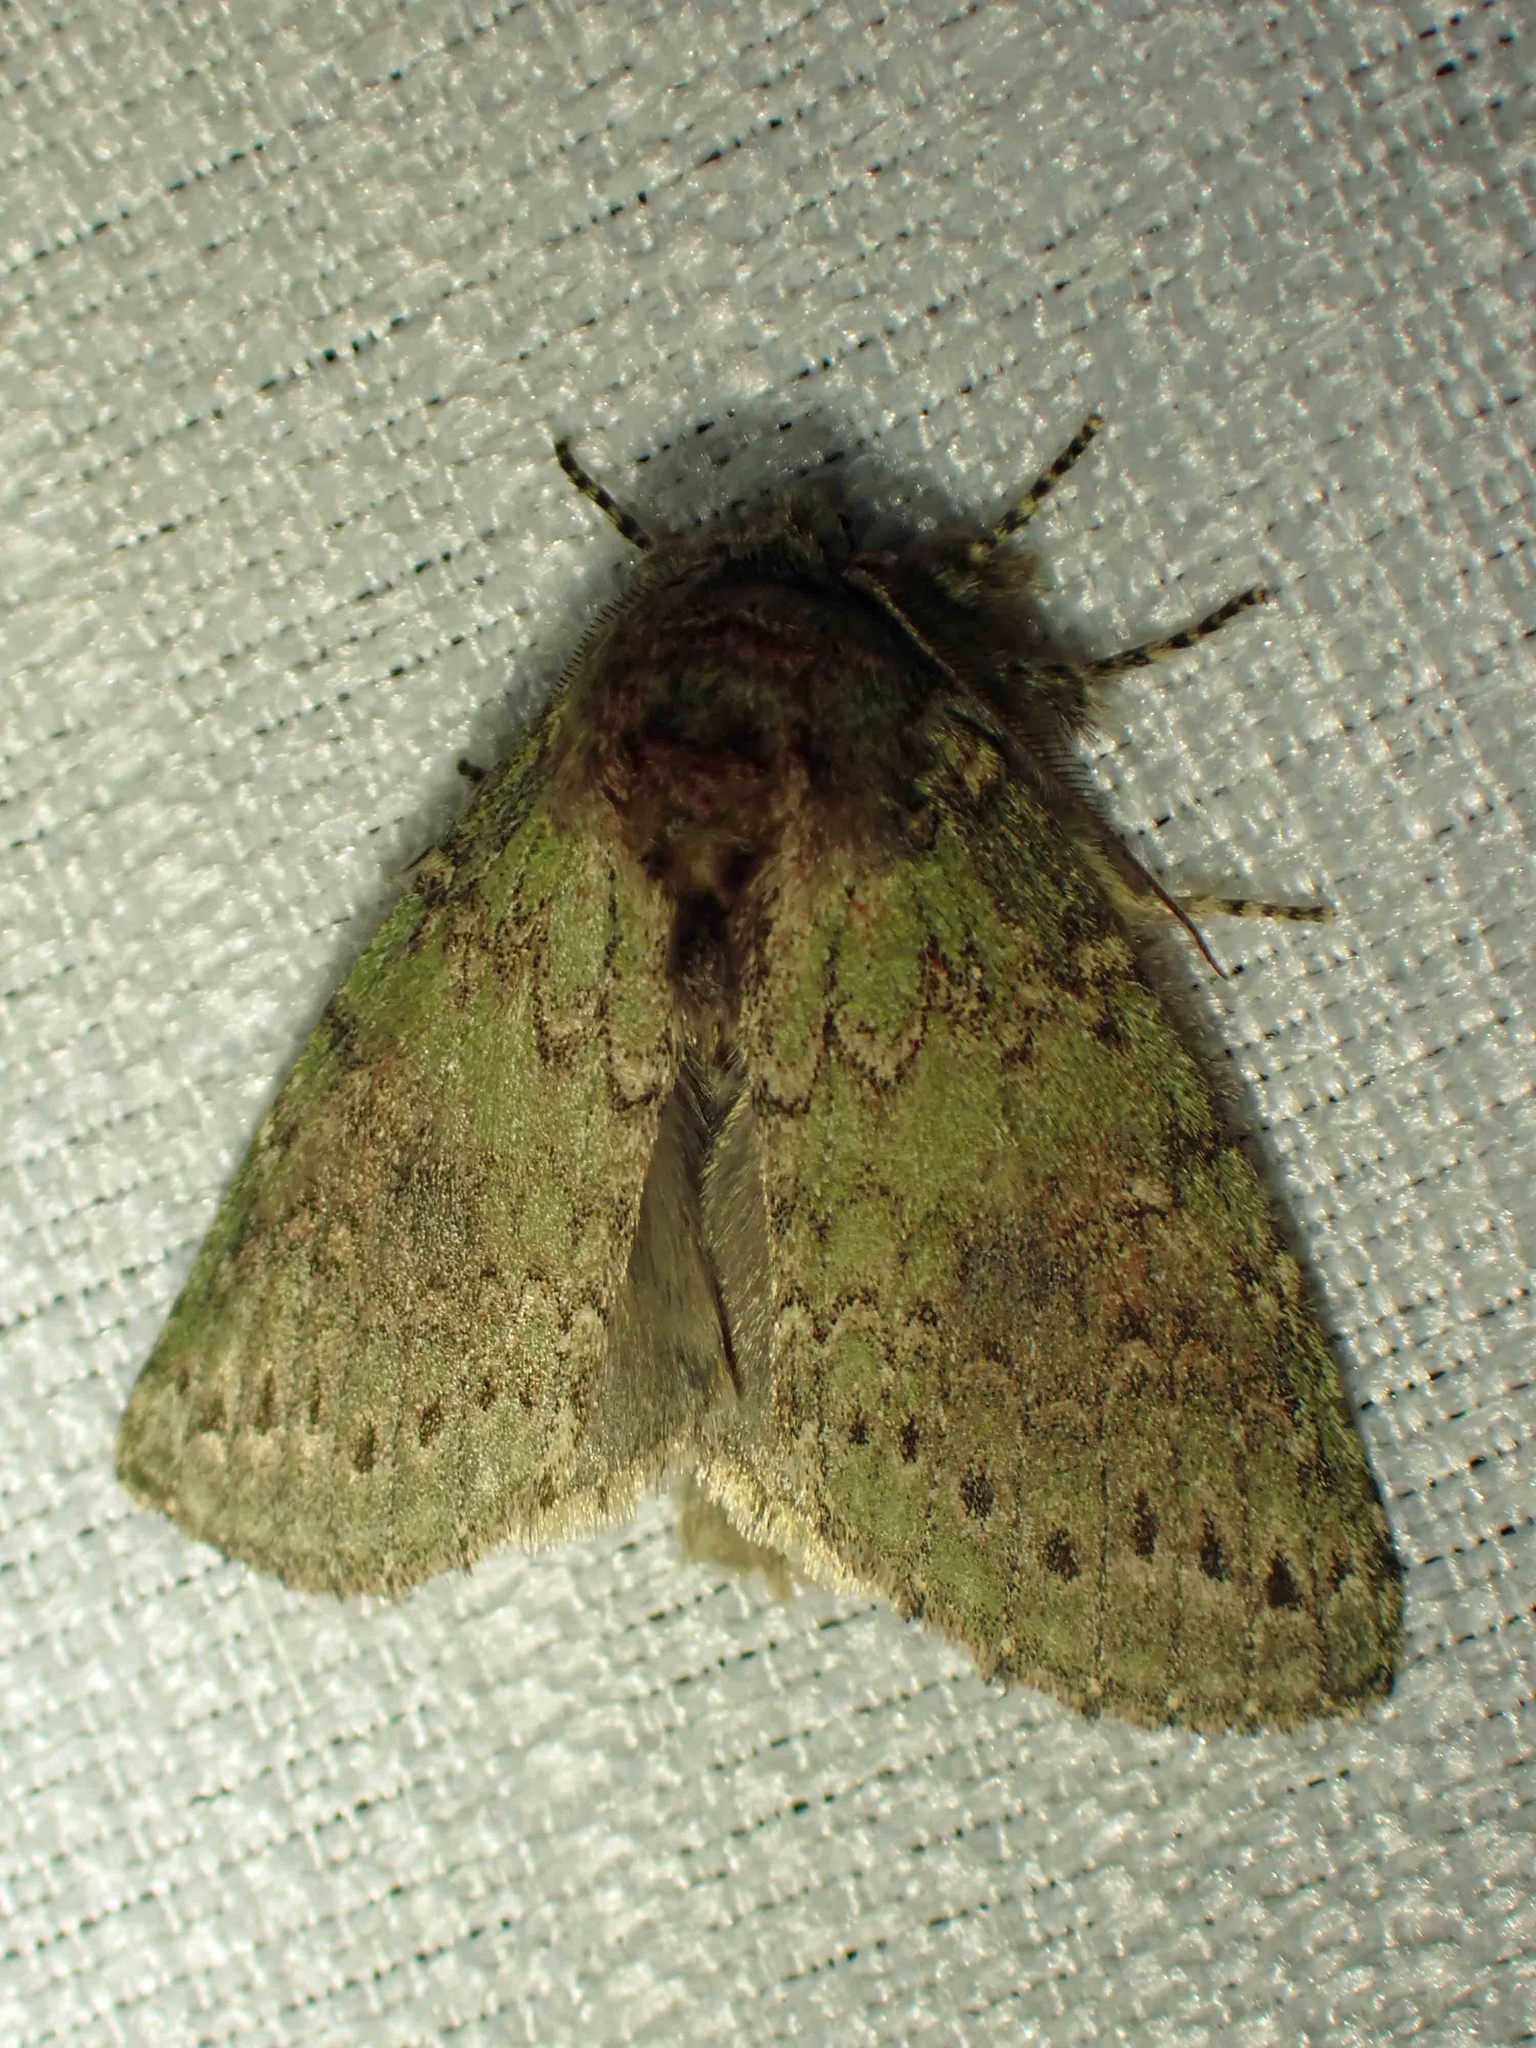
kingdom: Animalia
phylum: Arthropoda
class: Insecta
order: Lepidoptera
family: Notodontidae
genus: Disphragis
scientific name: Disphragis Cecrita biundata
